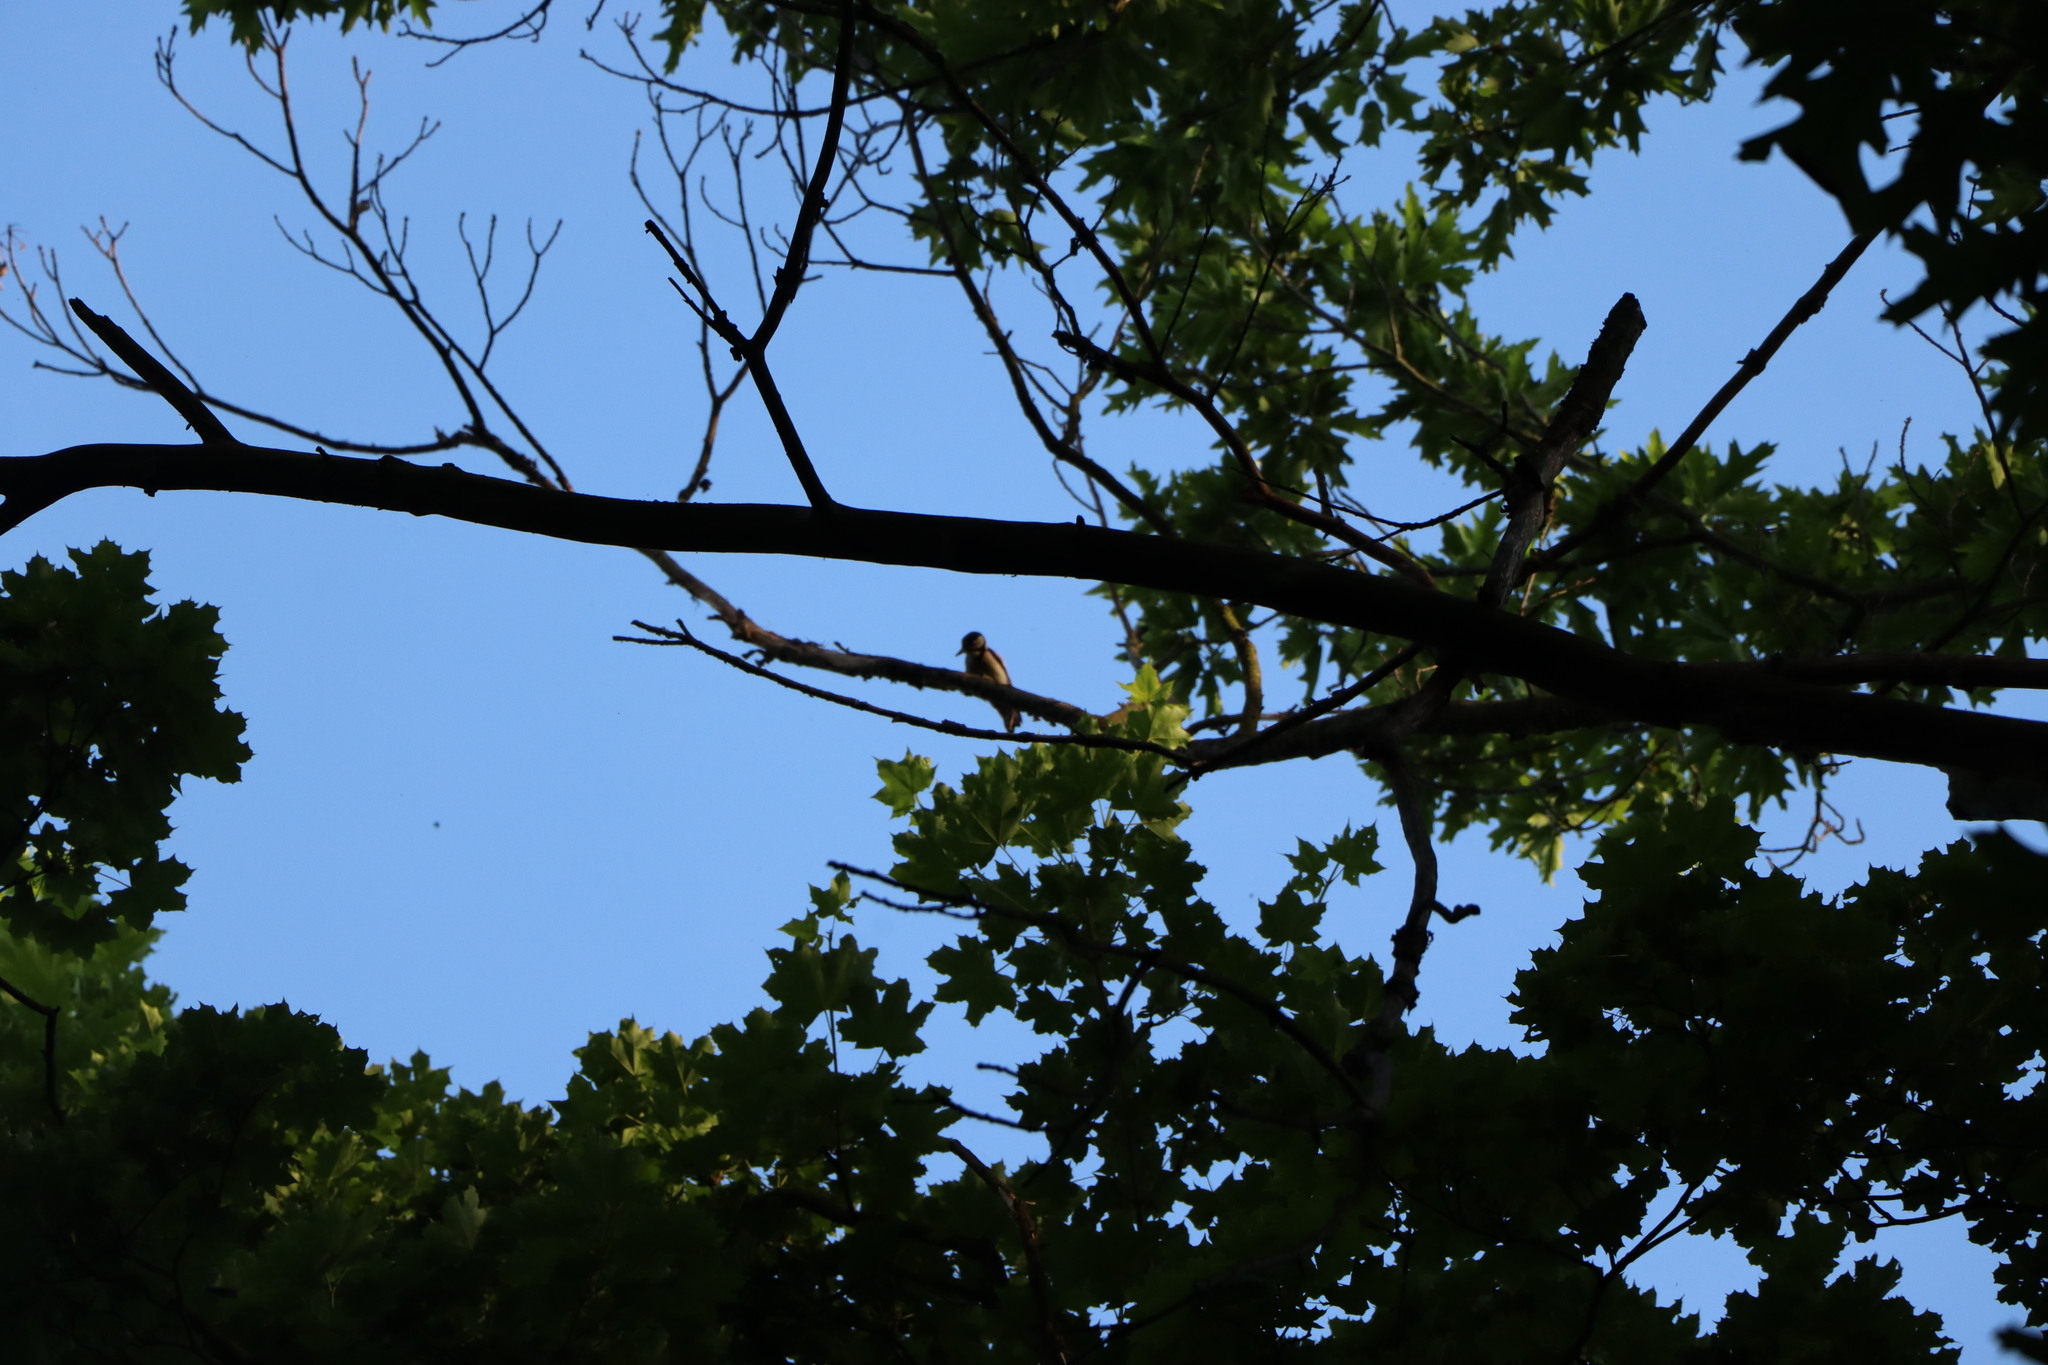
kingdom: Animalia
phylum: Chordata
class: Aves
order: Piciformes
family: Picidae
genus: Dendrocopos
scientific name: Dendrocopos major
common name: Great spotted woodpecker
